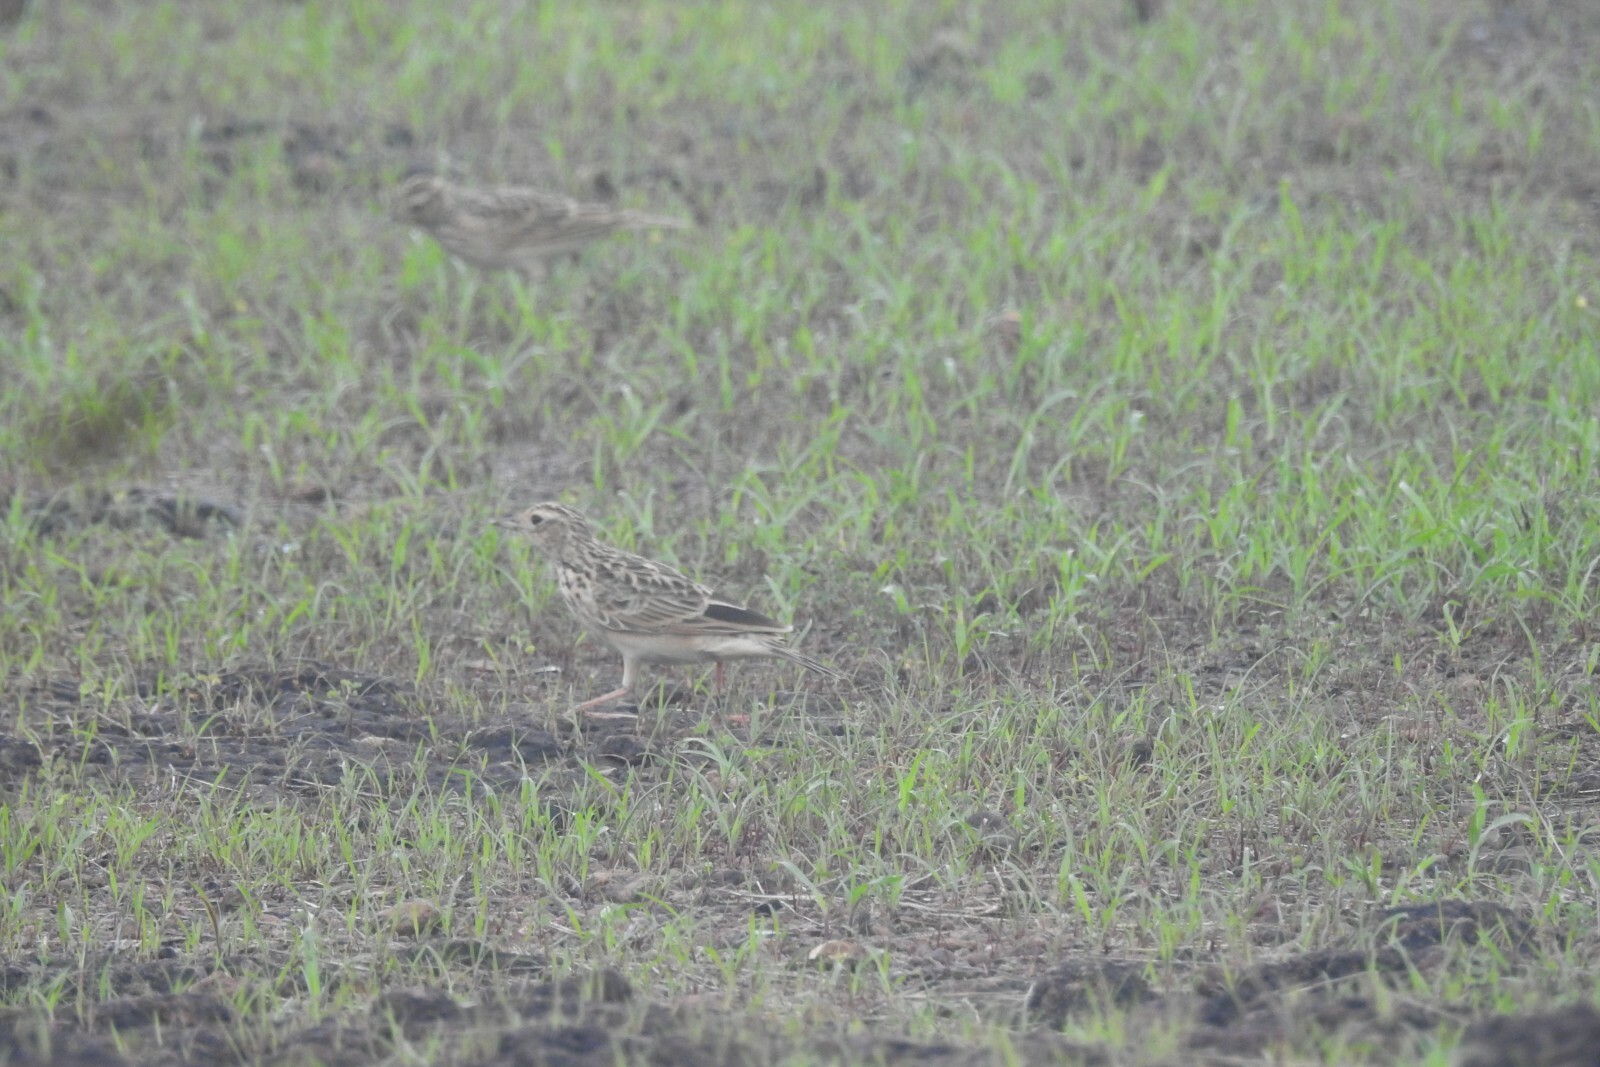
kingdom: Animalia
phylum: Chordata
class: Aves
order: Passeriformes
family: Alaudidae
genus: Alauda
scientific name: Alauda gulgula
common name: Oriental skylark
